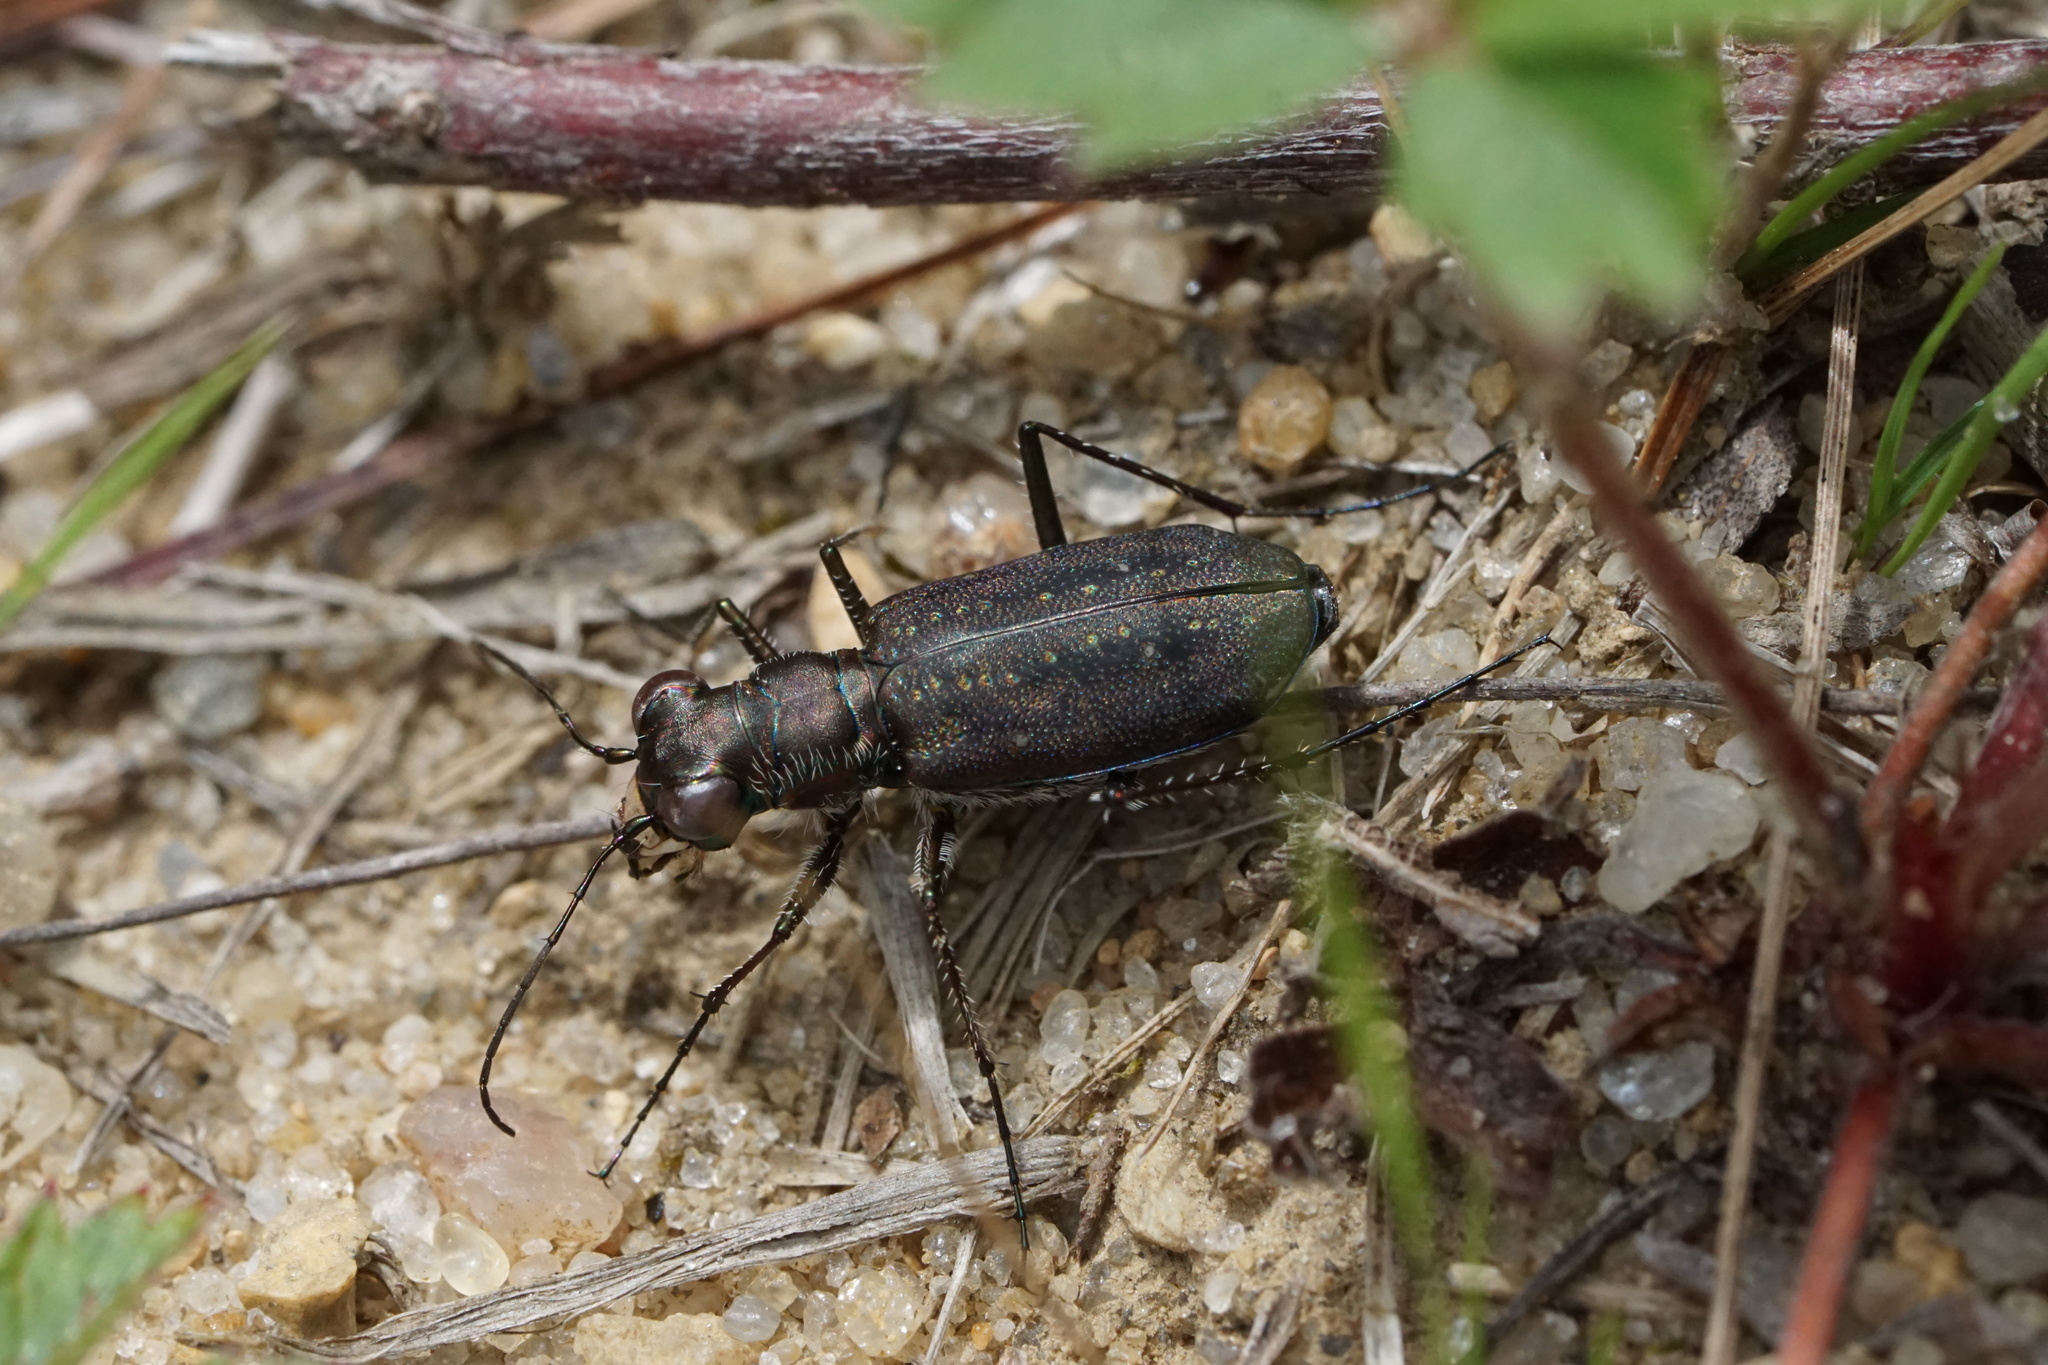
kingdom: Animalia
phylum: Arthropoda
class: Insecta
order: Coleoptera
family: Carabidae
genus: Cicindela
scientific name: Cicindela punctulata
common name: Punctured tiger beetle
